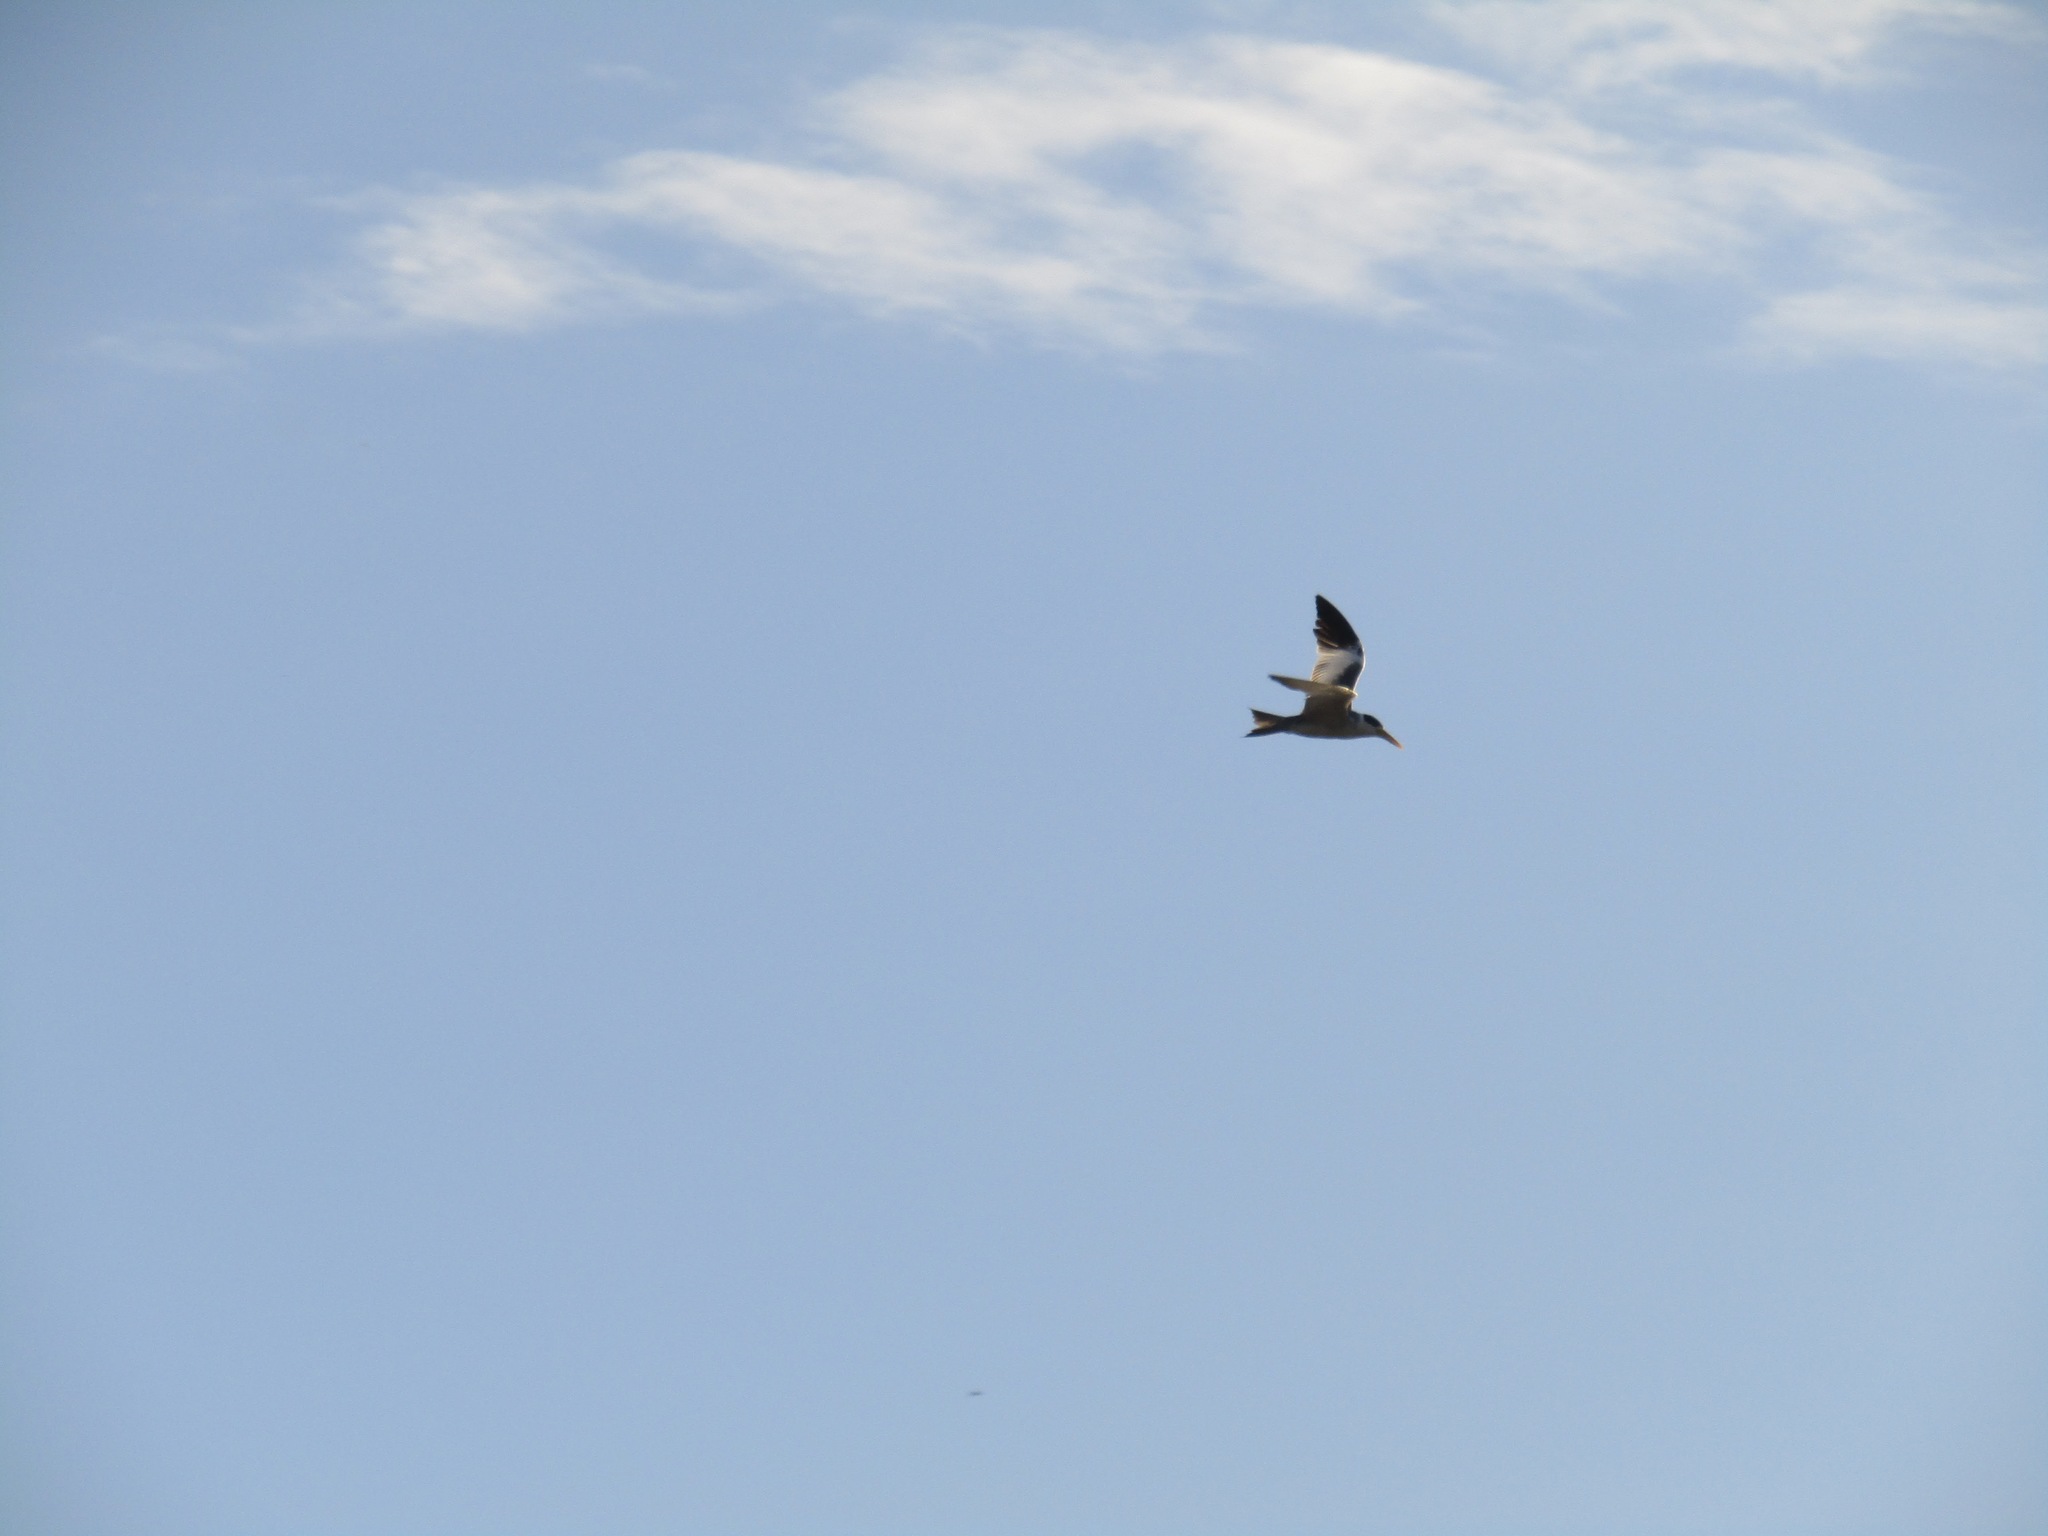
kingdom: Animalia
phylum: Chordata
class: Aves
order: Charadriiformes
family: Laridae
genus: Phaetusa
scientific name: Phaetusa simplex
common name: Large-billed tern
